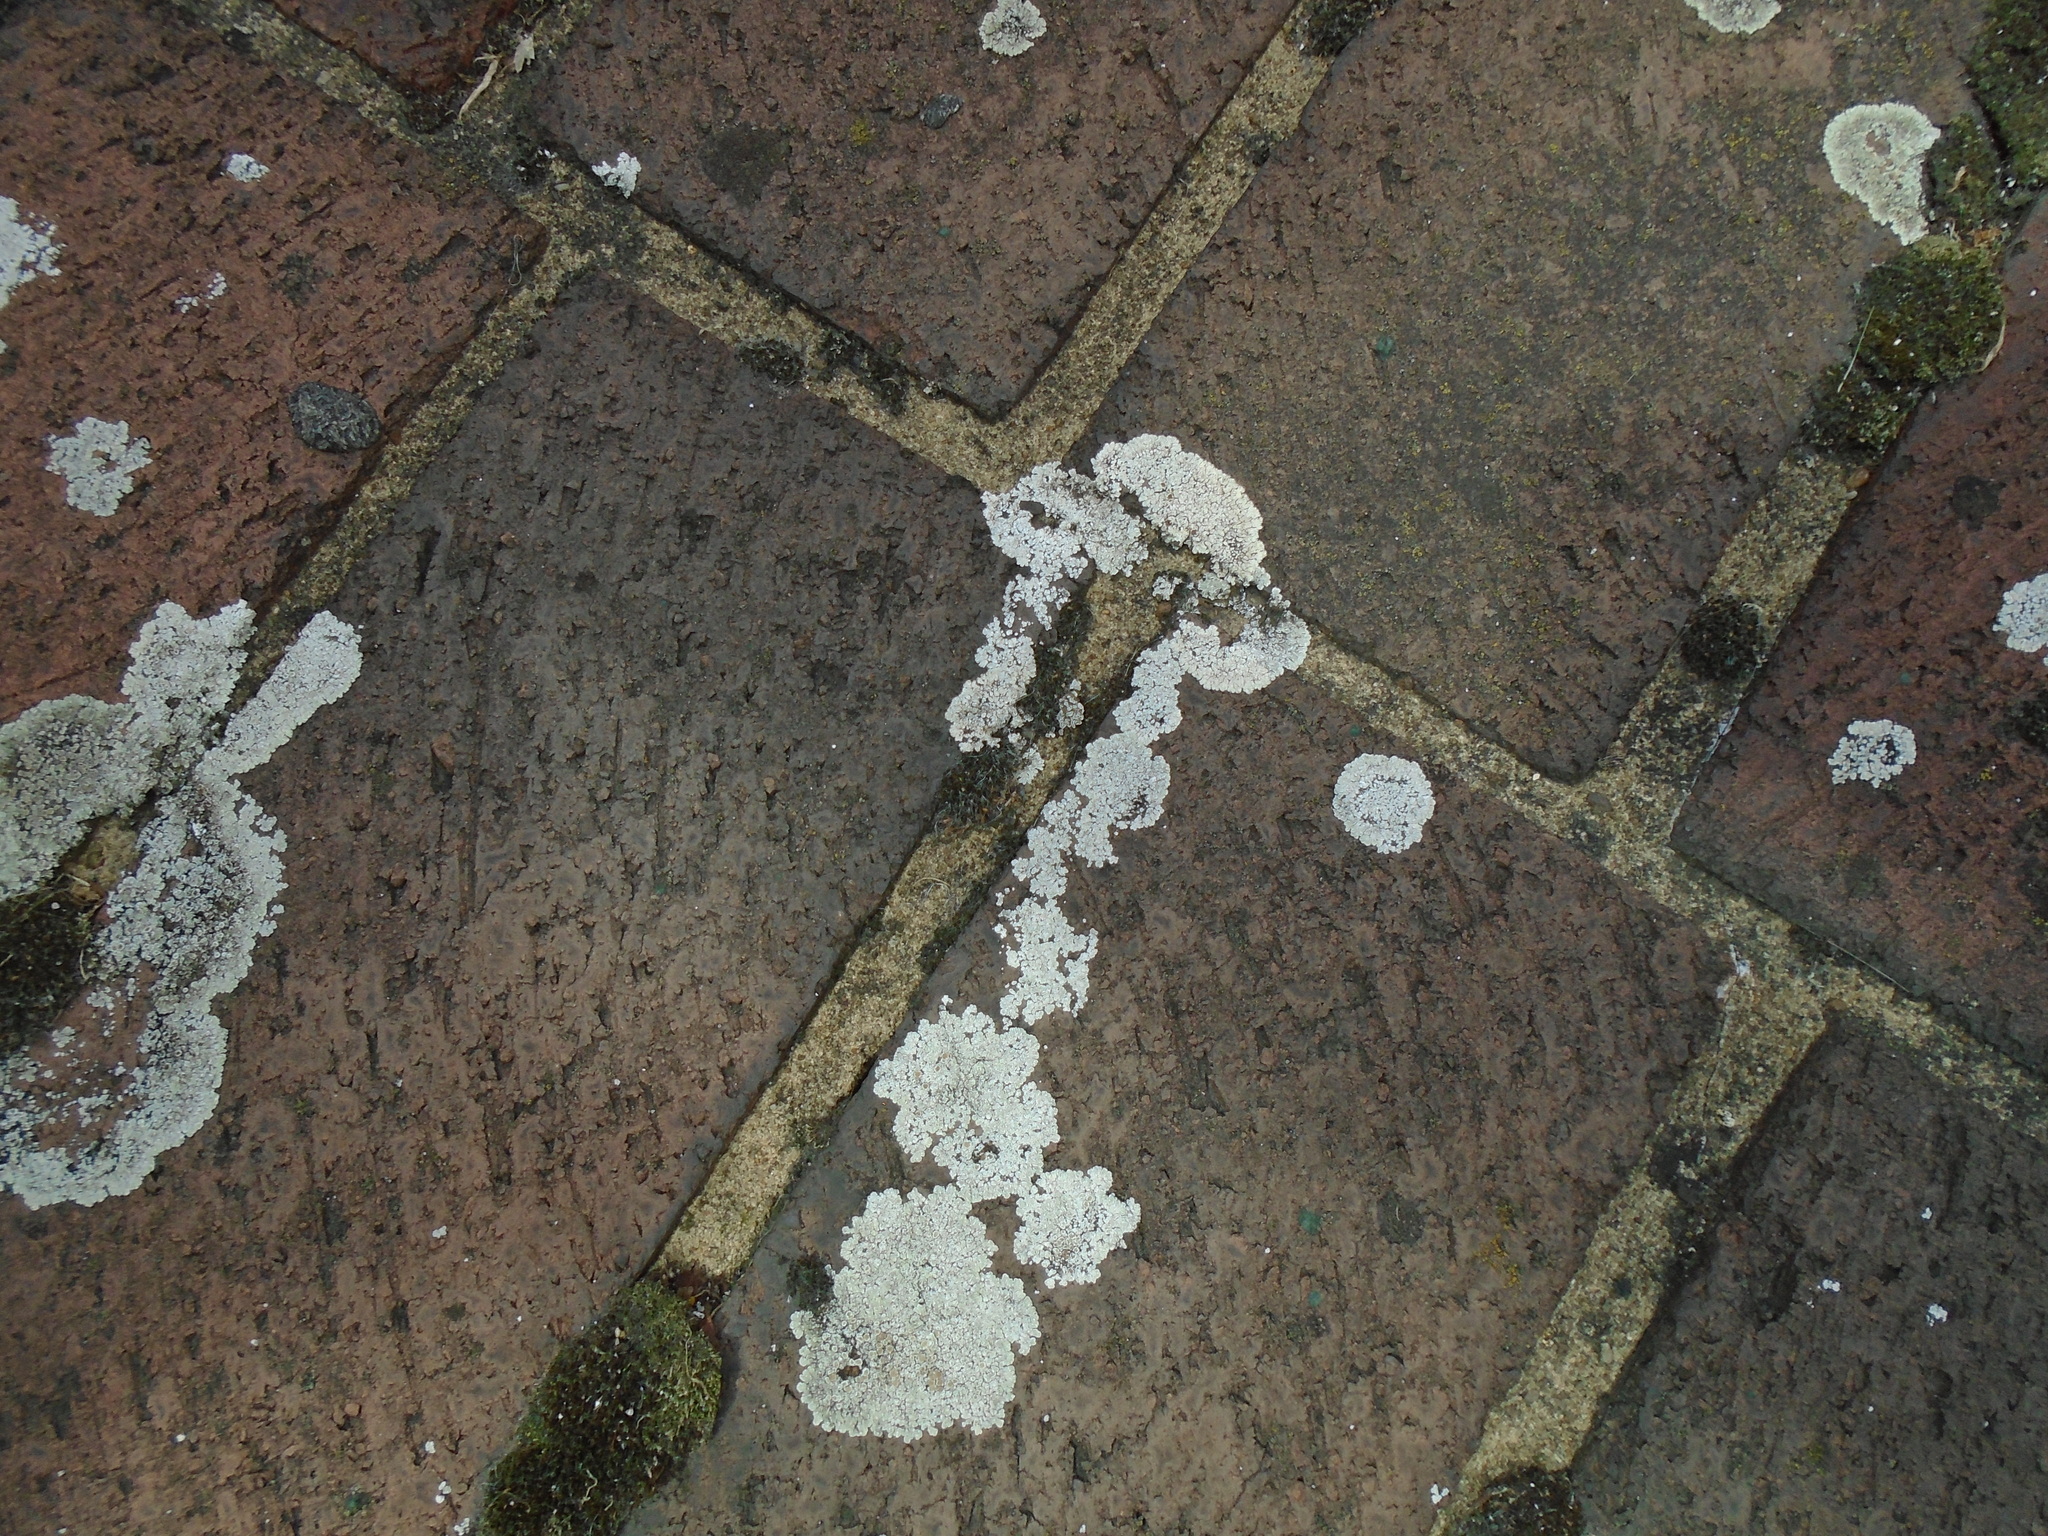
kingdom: Fungi
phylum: Ascomycota
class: Lecanoromycetes
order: Lecanorales
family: Lecanoraceae
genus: Protoparmeliopsis
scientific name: Protoparmeliopsis muralis
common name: Stonewall rim lichen
